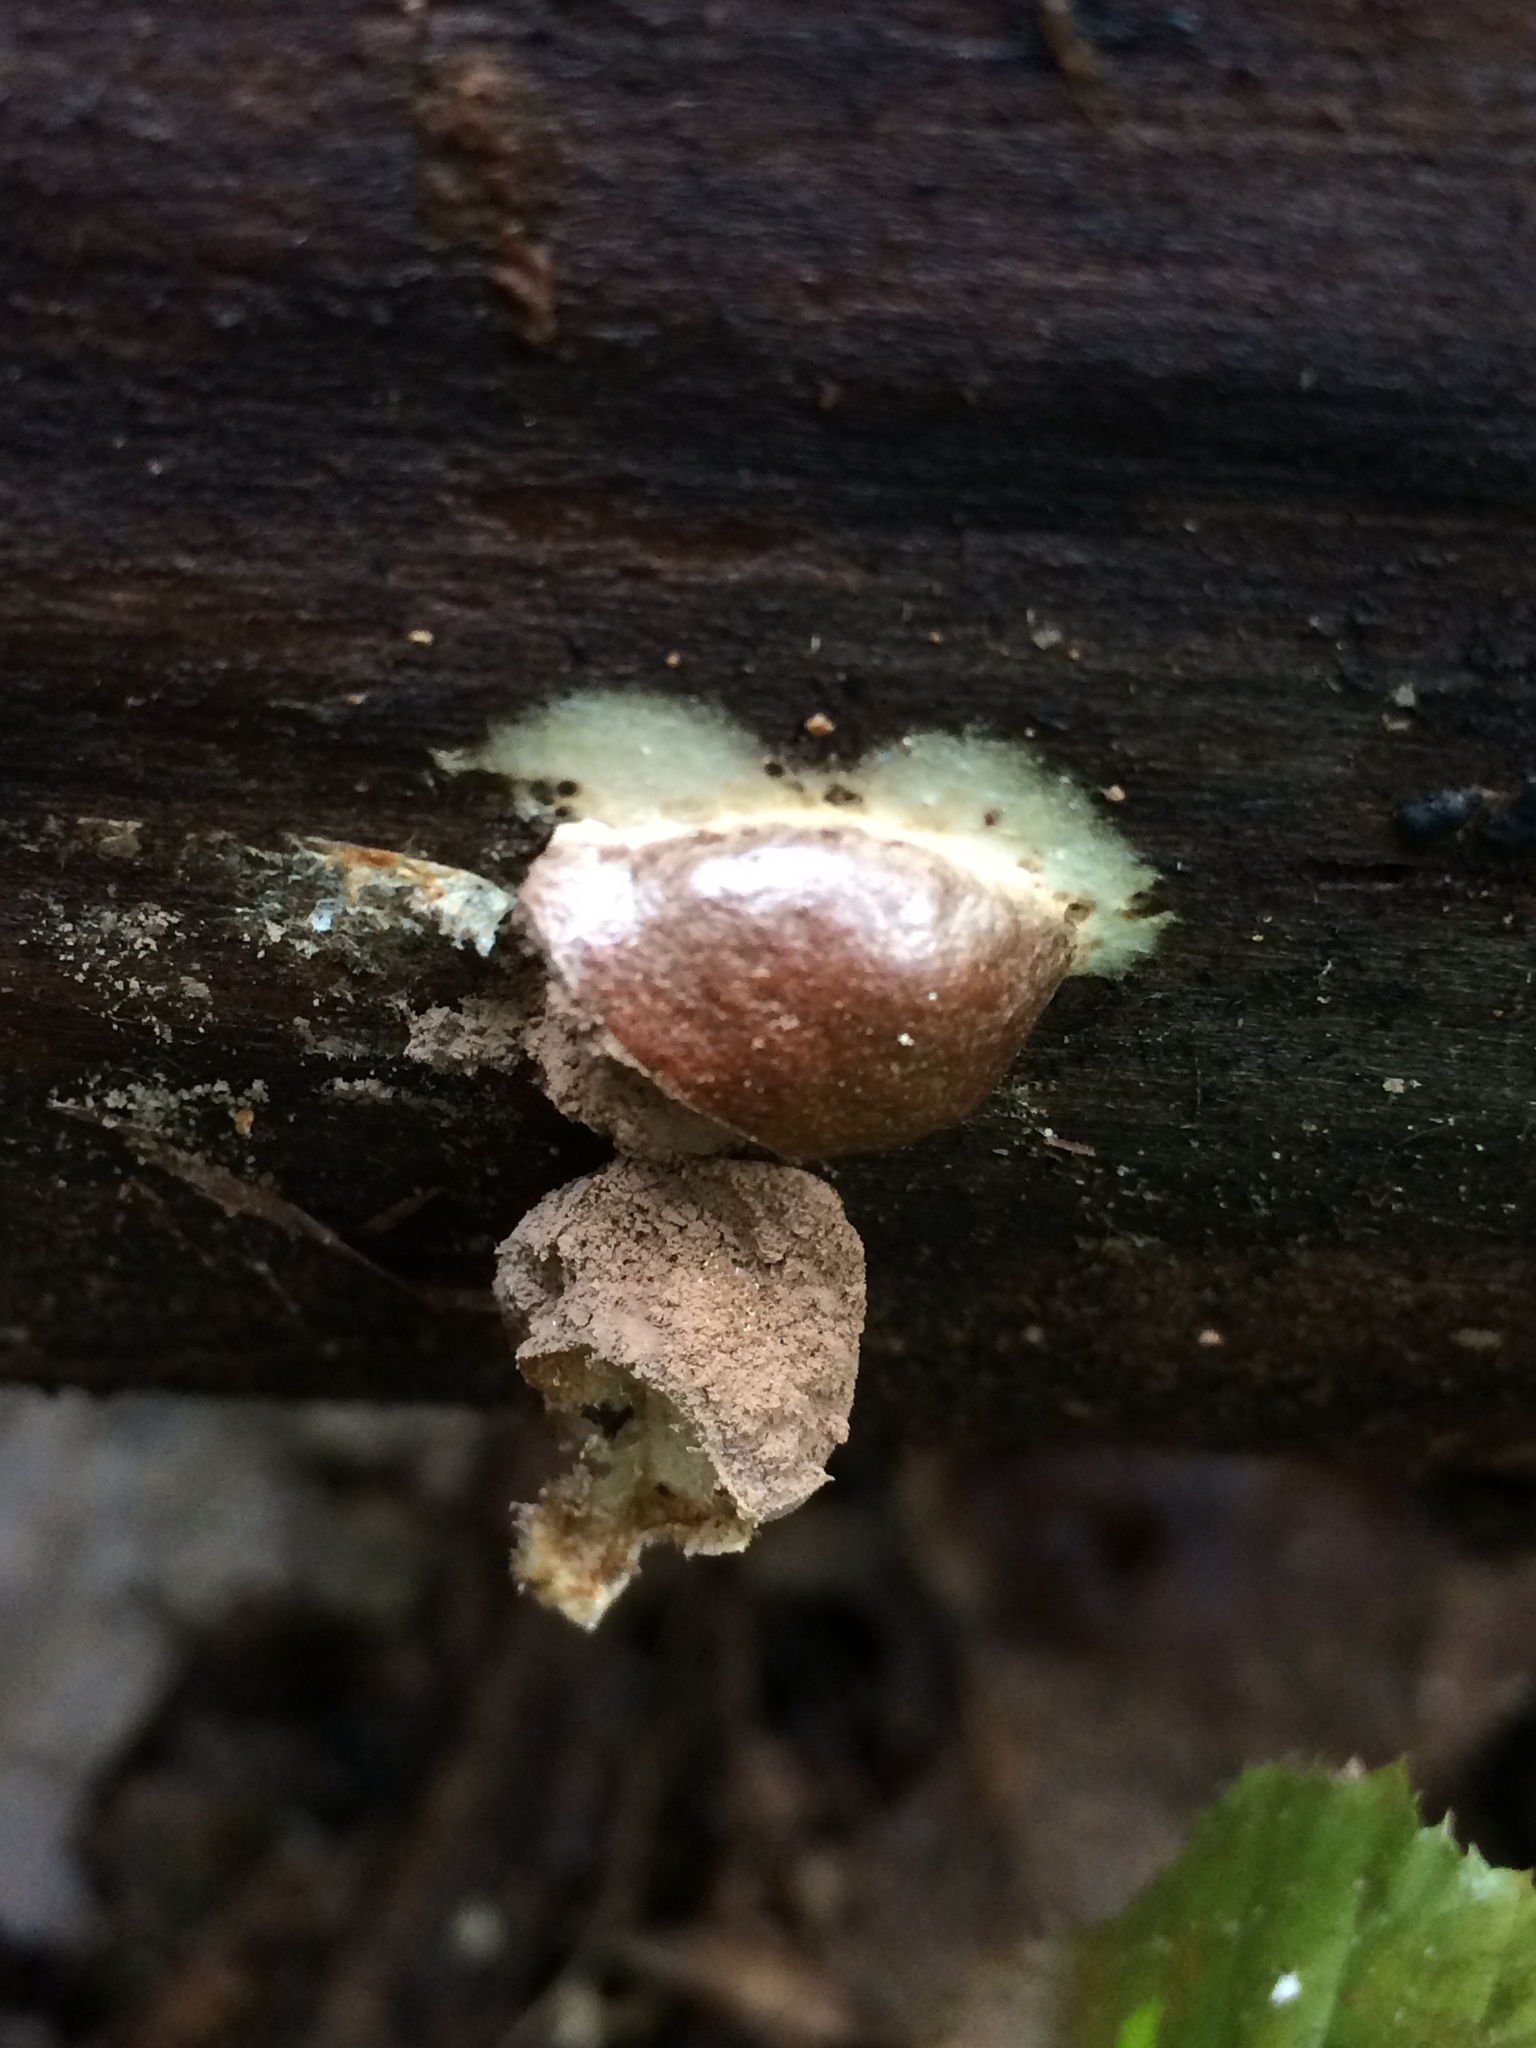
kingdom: Protozoa
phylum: Mycetozoa
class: Myxomycetes
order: Cribrariales
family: Tubiferaceae
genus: Lycogala
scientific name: Lycogala epidendrum
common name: Wolf's milk
